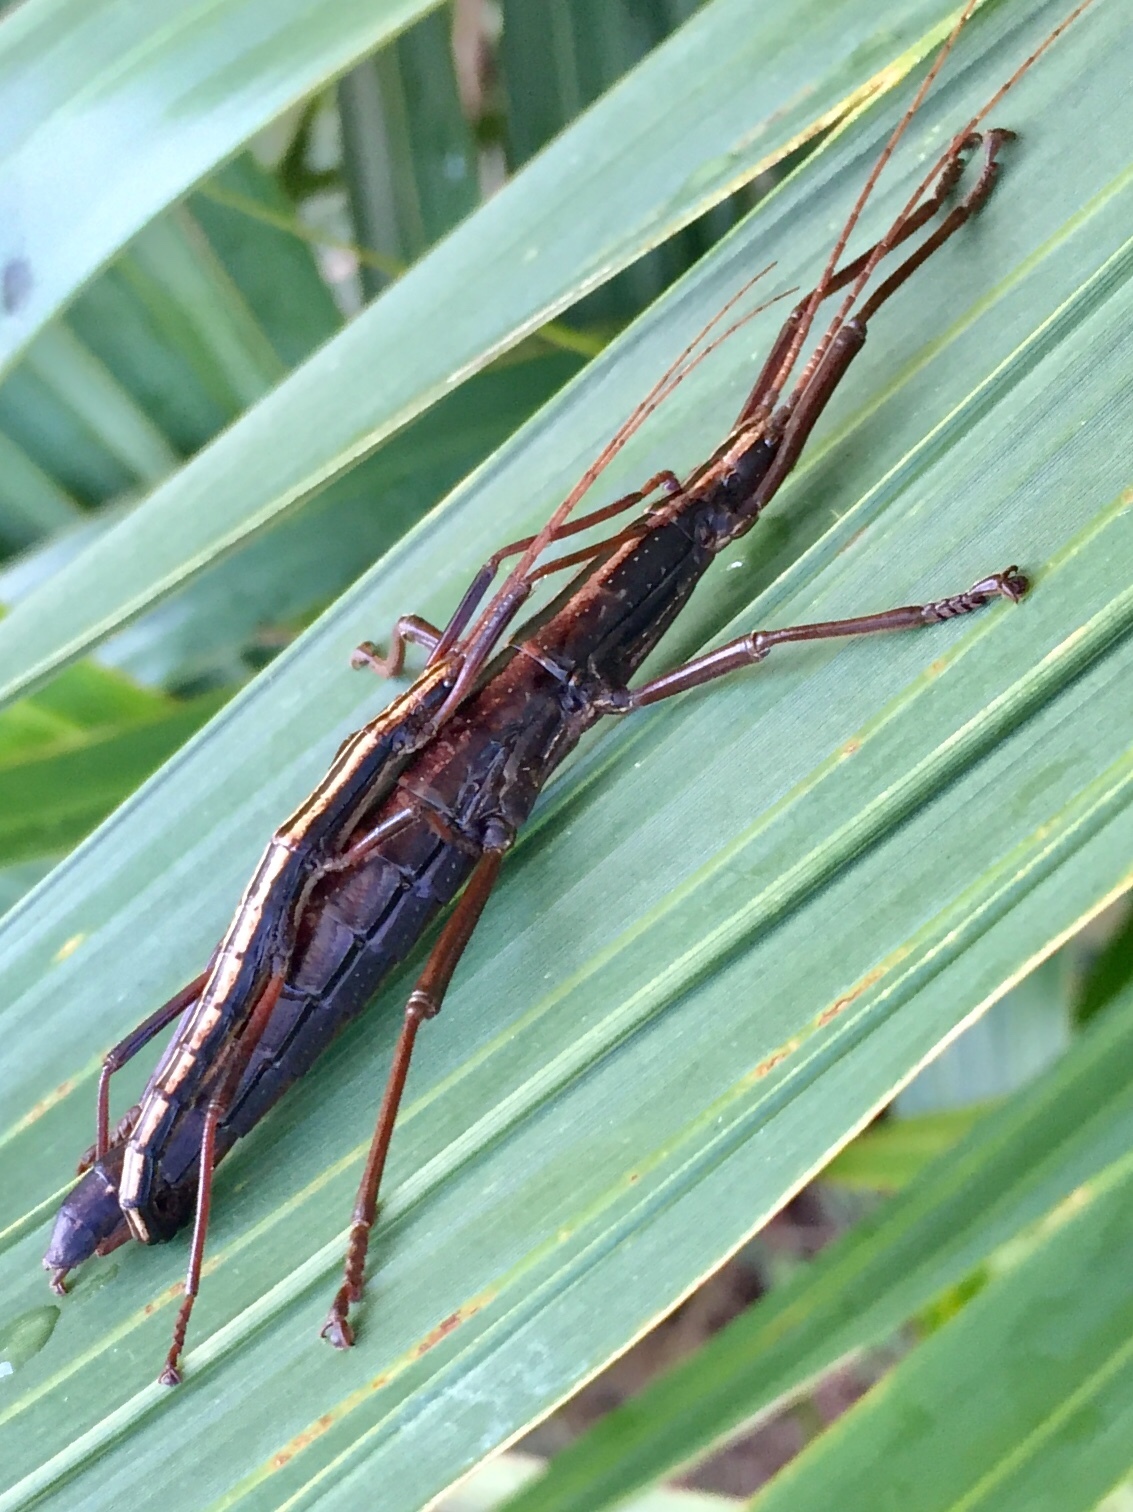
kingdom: Animalia
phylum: Arthropoda
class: Insecta
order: Phasmida
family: Pseudophasmatidae
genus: Anisomorpha
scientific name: Anisomorpha buprestoides
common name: Florida stick insect
